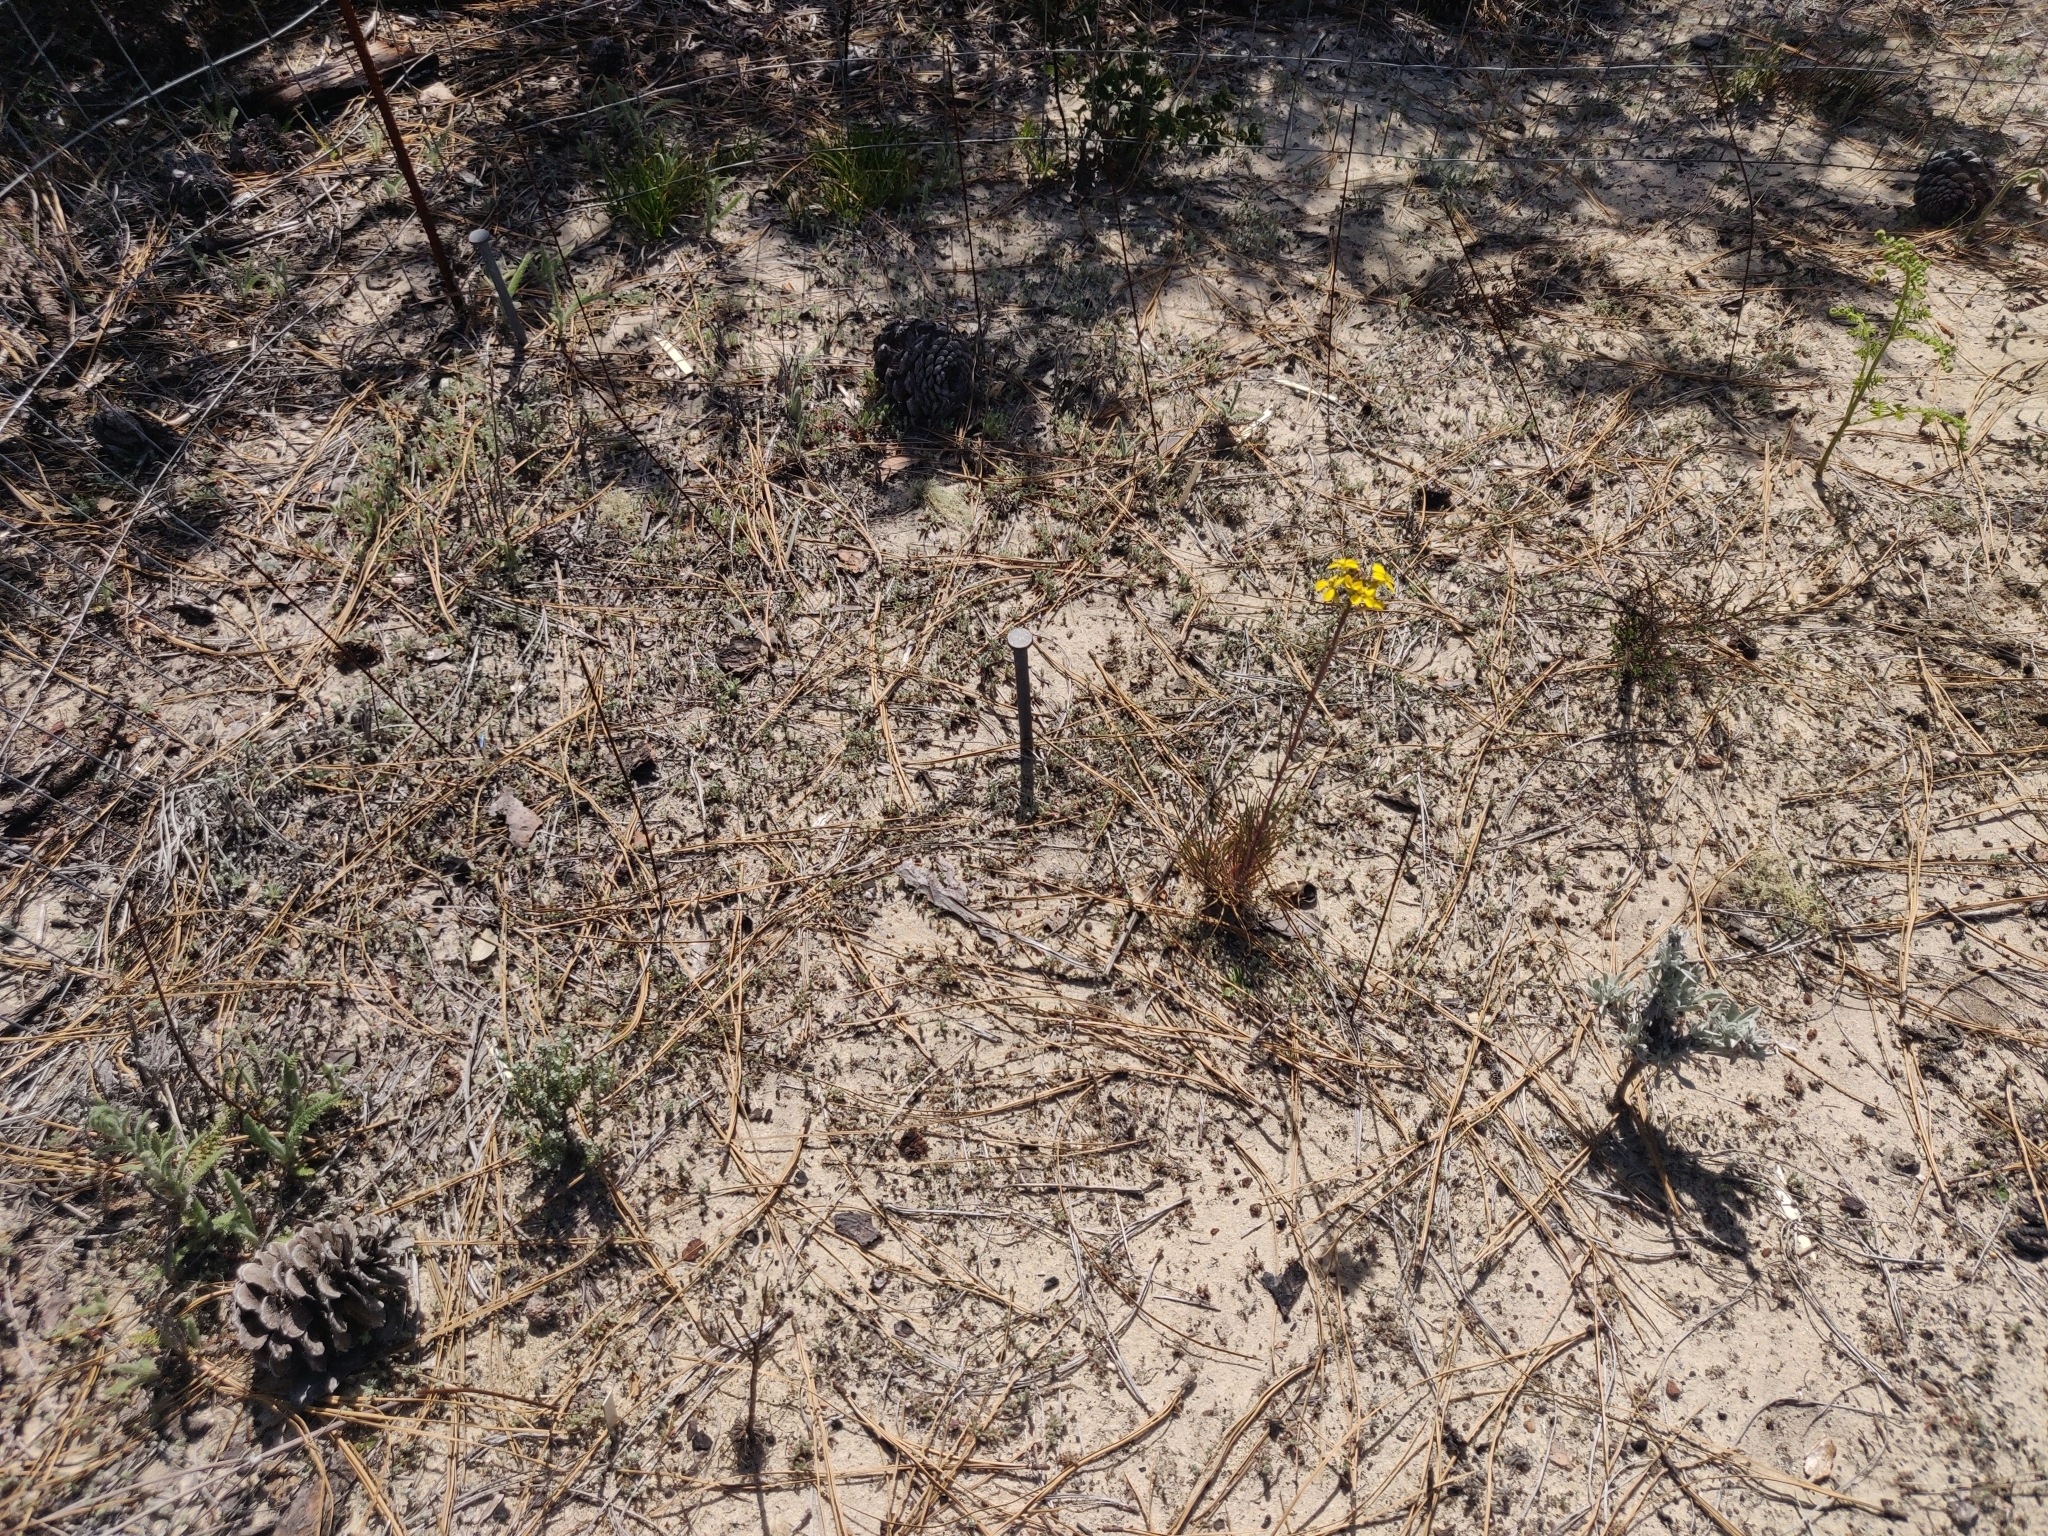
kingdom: Plantae
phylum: Tracheophyta
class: Magnoliopsida
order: Brassicales
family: Brassicaceae
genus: Erysimum
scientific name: Erysimum teretifolium
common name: Ben lomond wallflower
